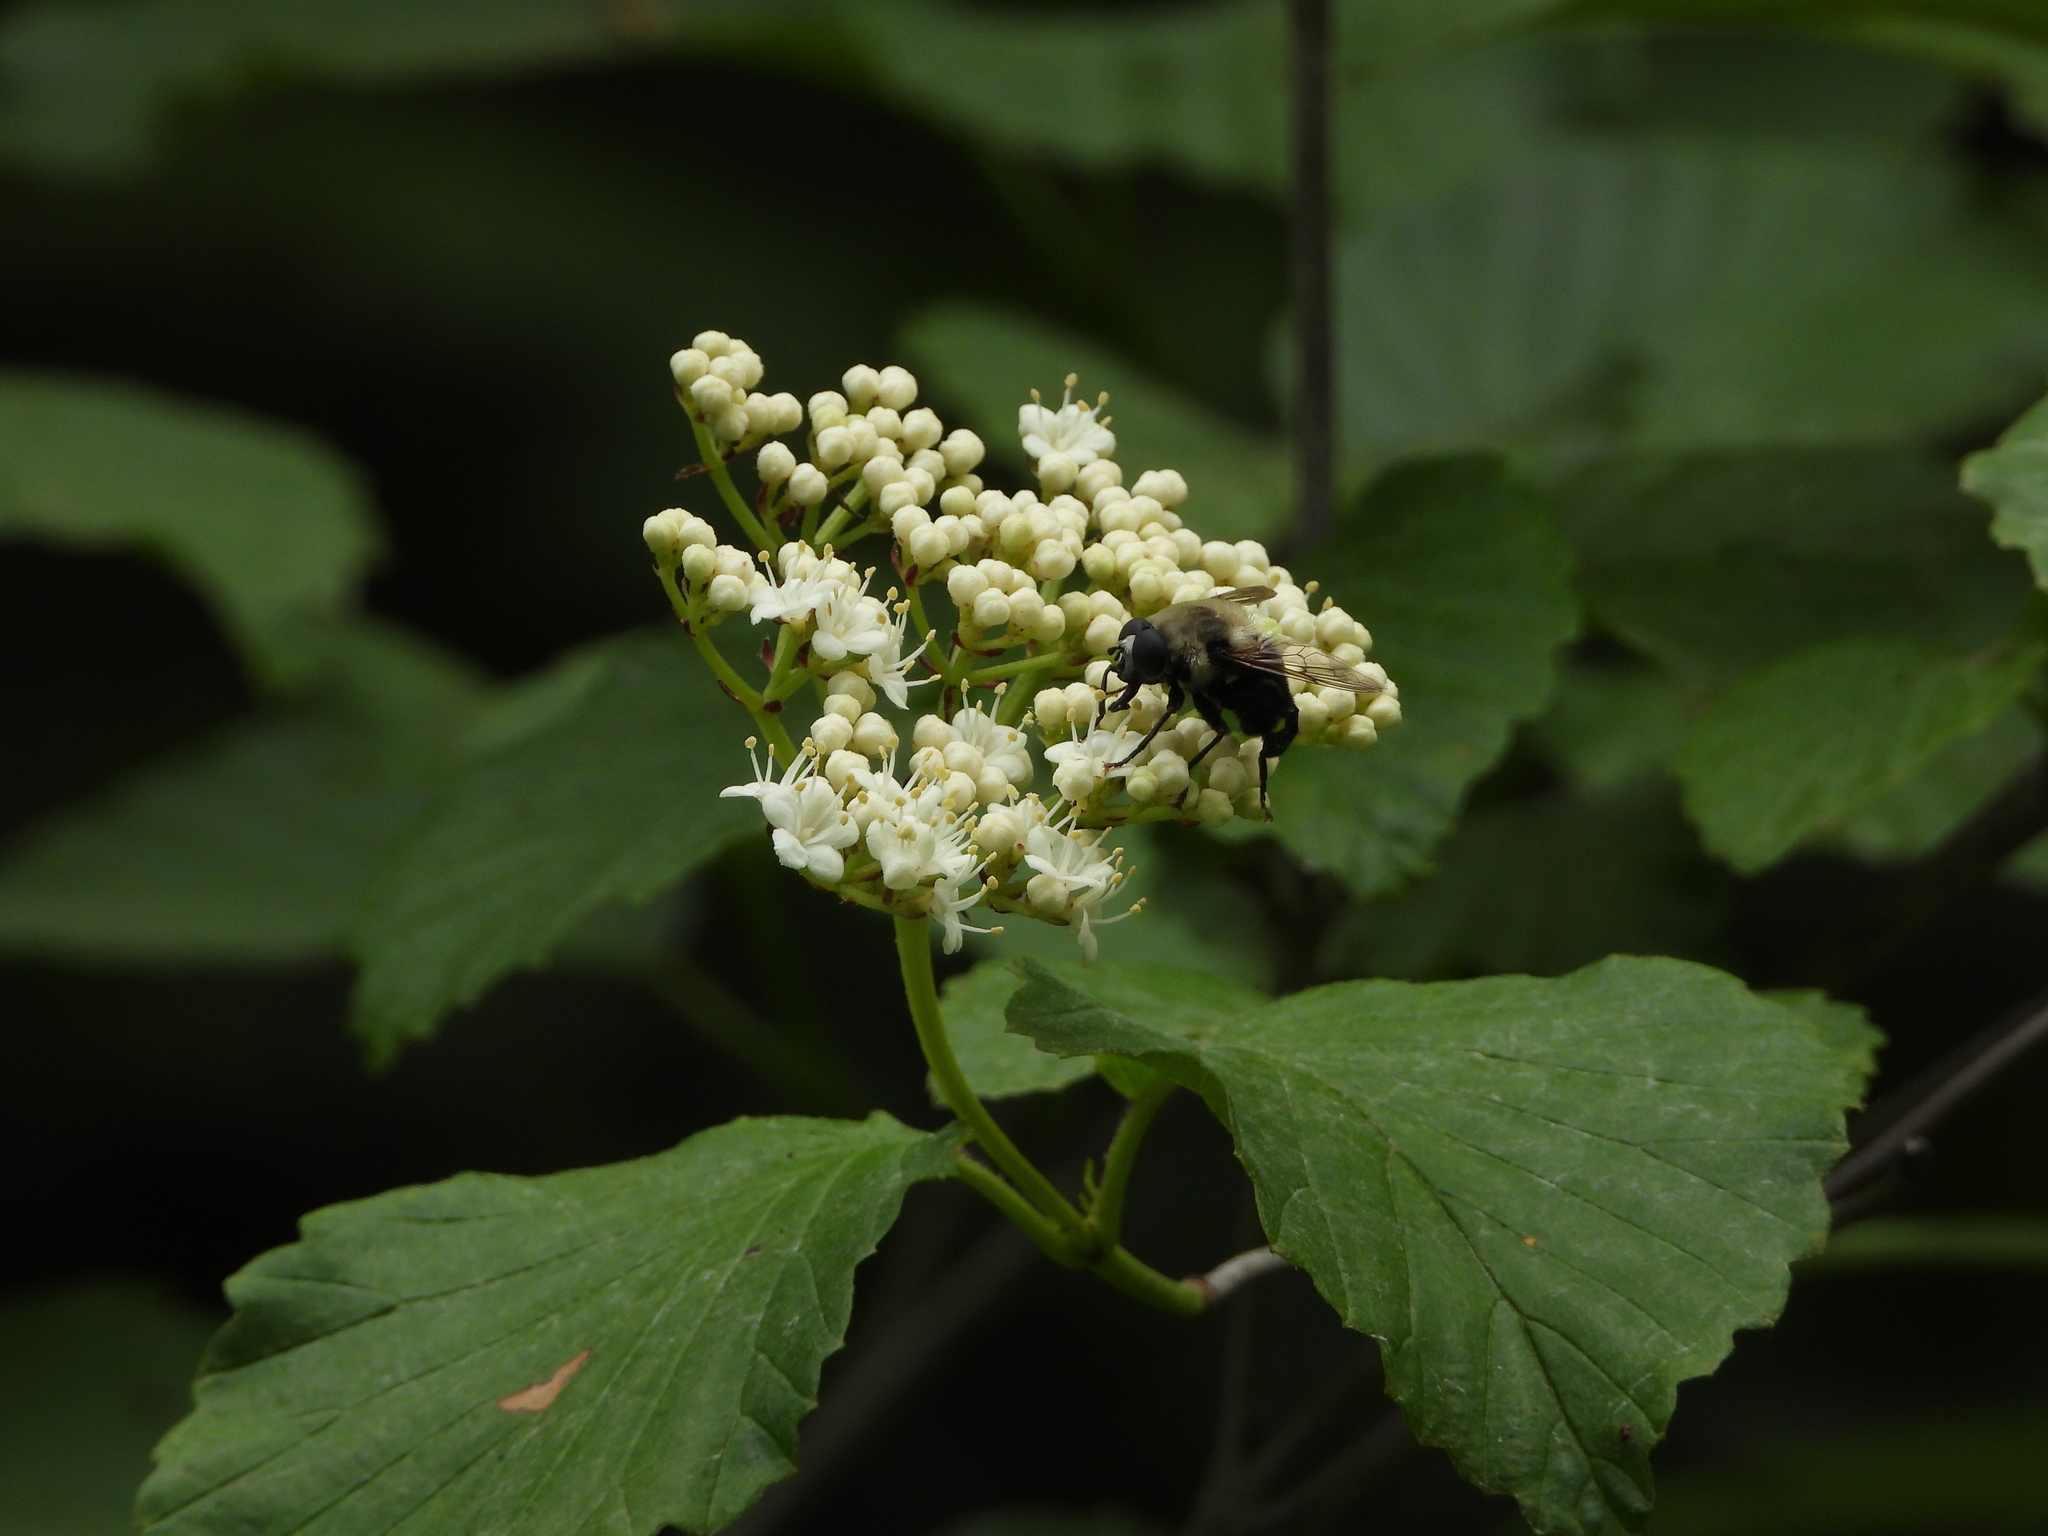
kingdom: Animalia
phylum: Arthropoda
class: Insecta
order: Diptera
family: Syrphidae
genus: Imatisma
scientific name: Imatisma bautias
